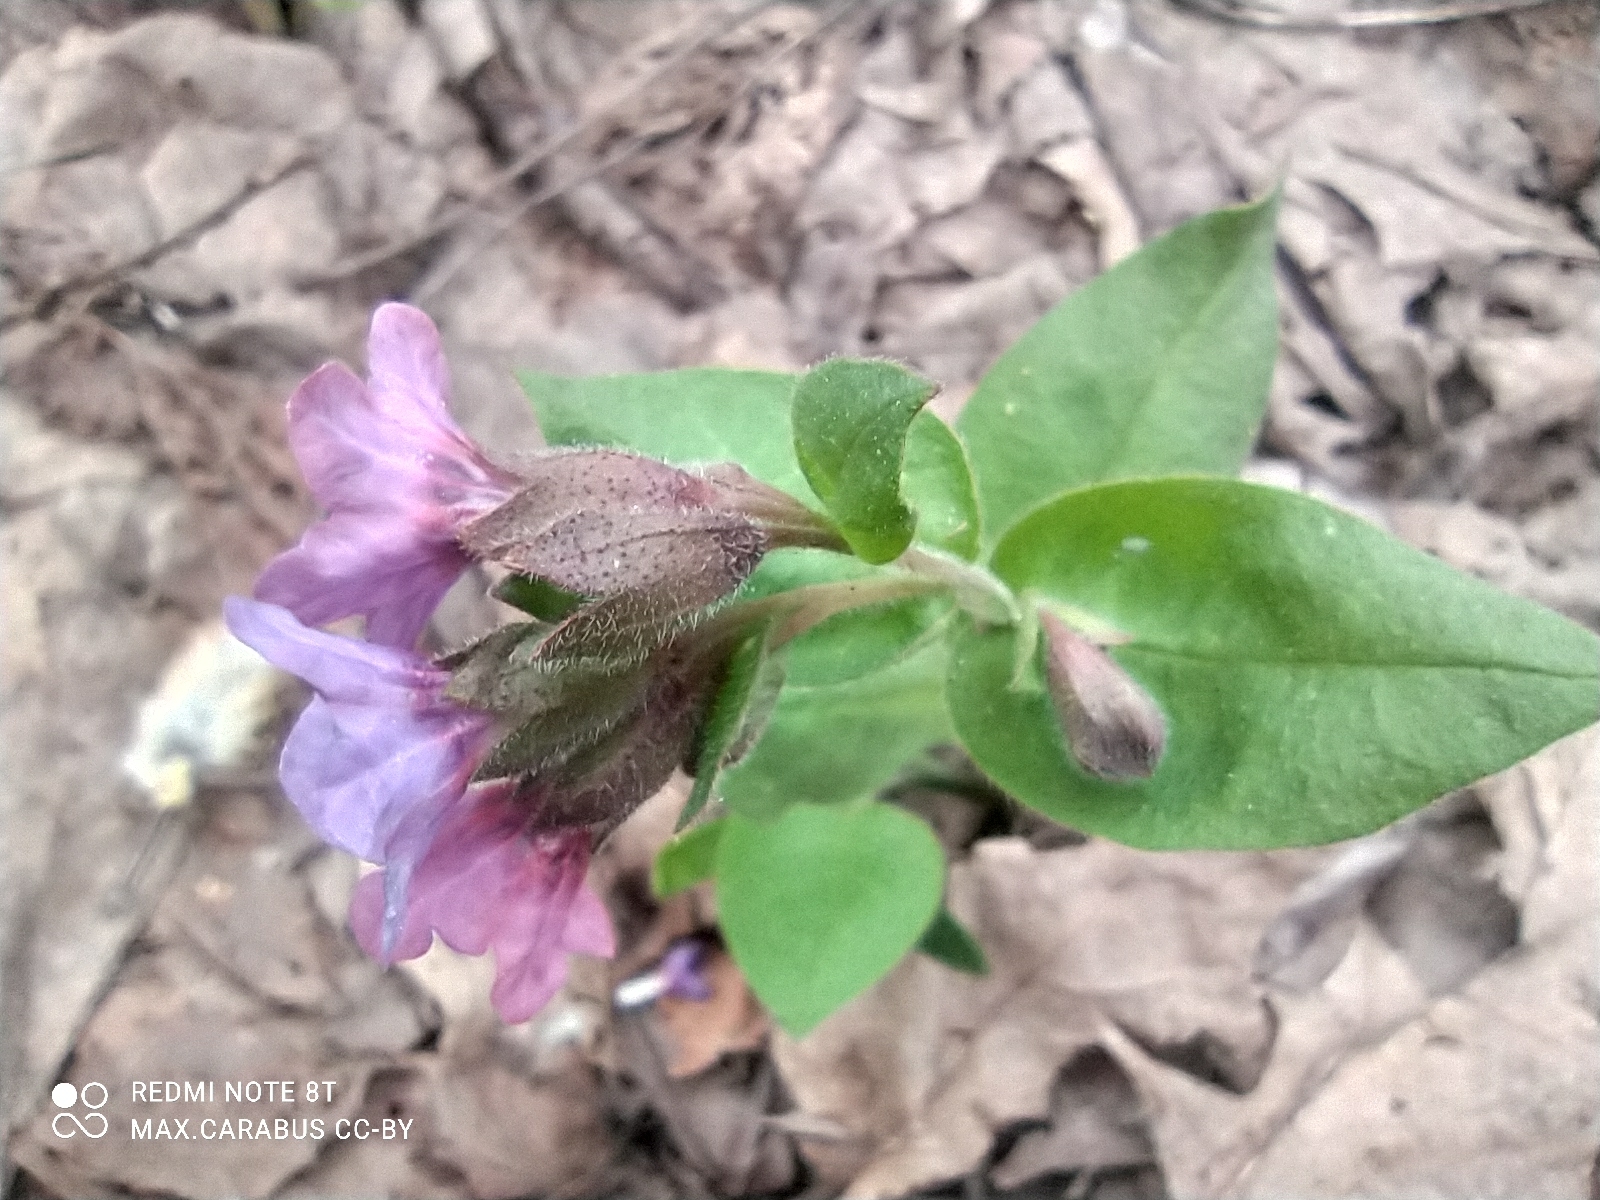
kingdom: Plantae
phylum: Tracheophyta
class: Magnoliopsida
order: Boraginales
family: Boraginaceae
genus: Pulmonaria
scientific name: Pulmonaria obscura
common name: Suffolk lungwort
